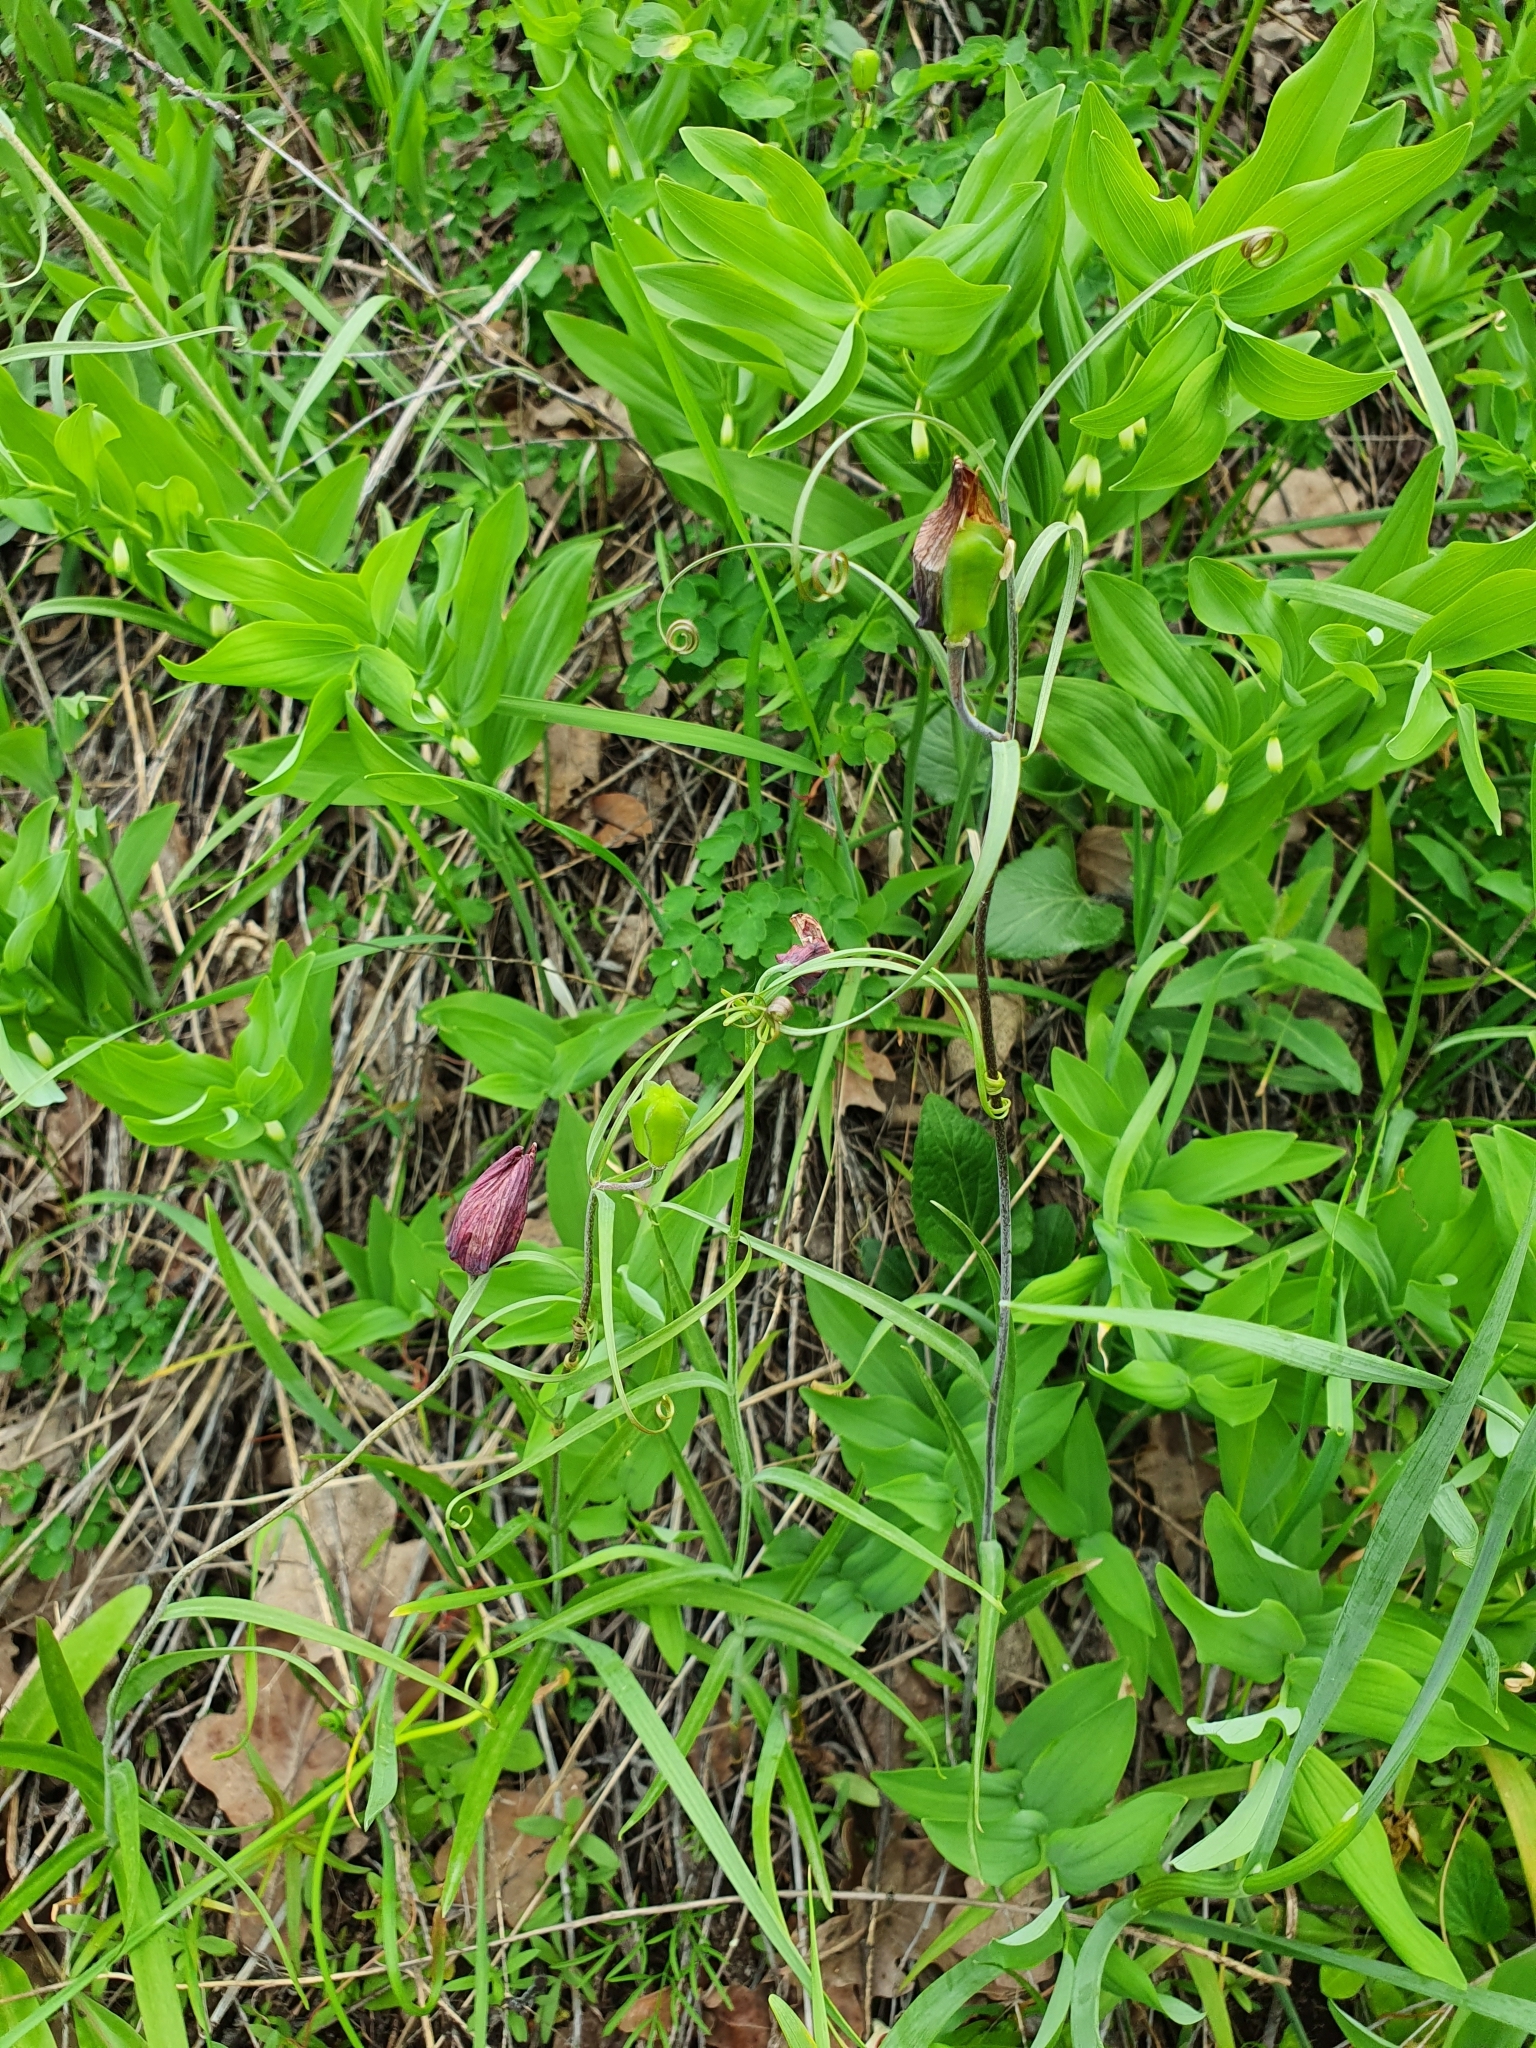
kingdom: Plantae
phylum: Tracheophyta
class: Liliopsida
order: Liliales
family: Liliaceae
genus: Fritillaria
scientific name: Fritillaria ruthenica
